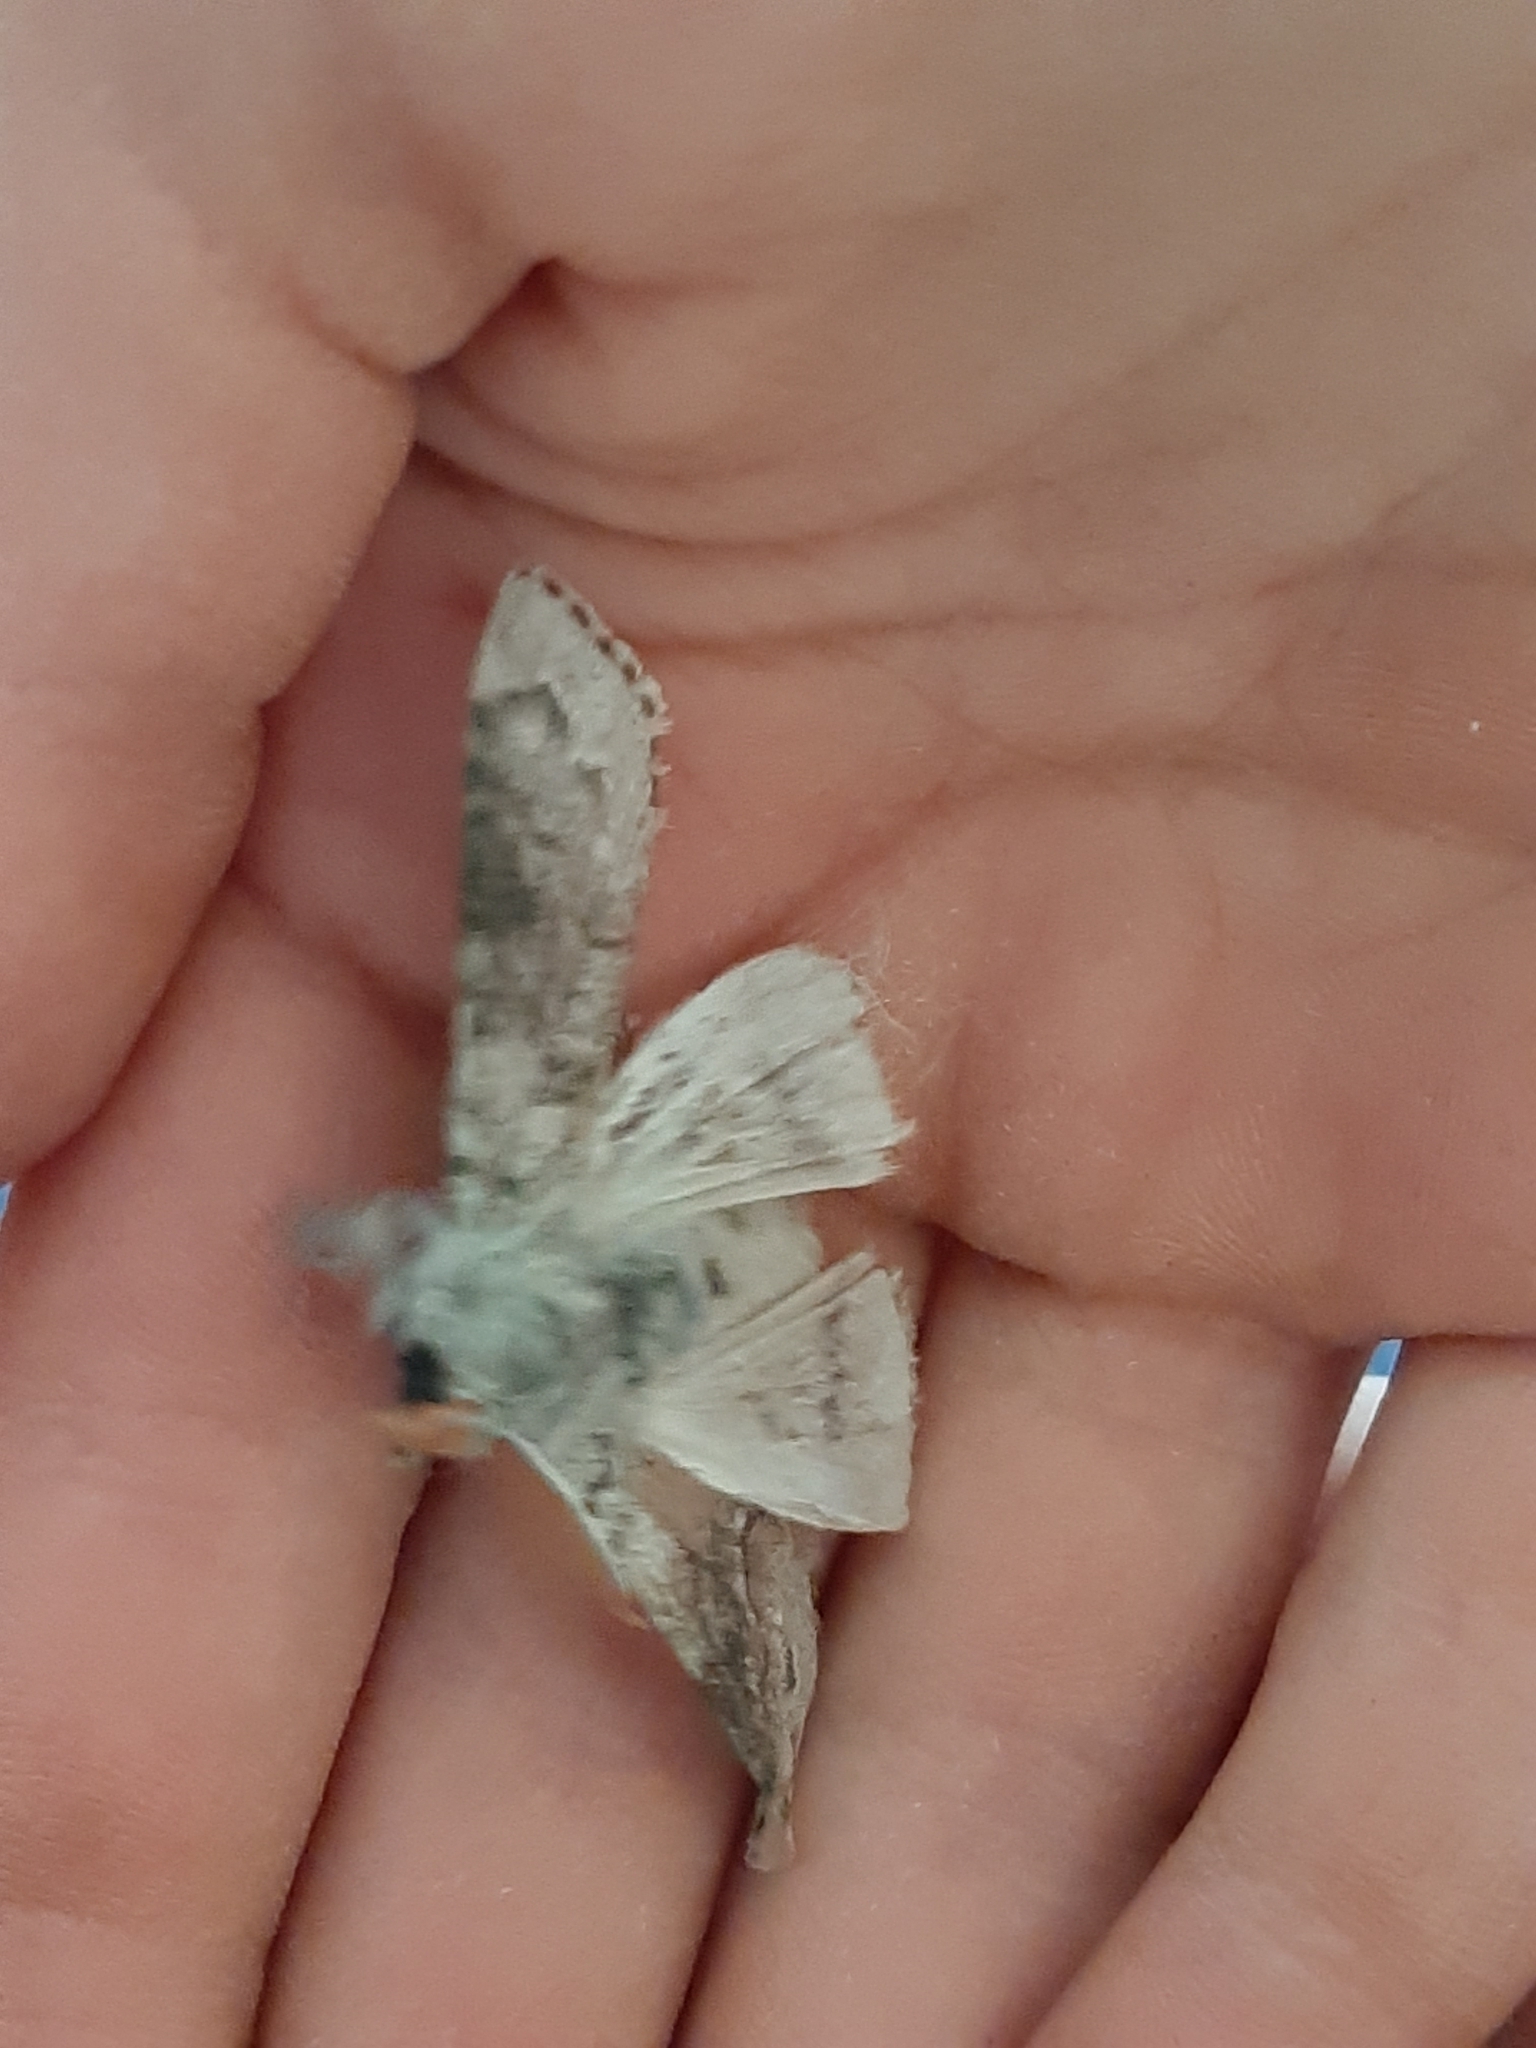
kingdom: Animalia
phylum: Arthropoda
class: Insecta
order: Lepidoptera
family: Erebidae
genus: Calliteara
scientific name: Calliteara pudibunda
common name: Pale tussock
